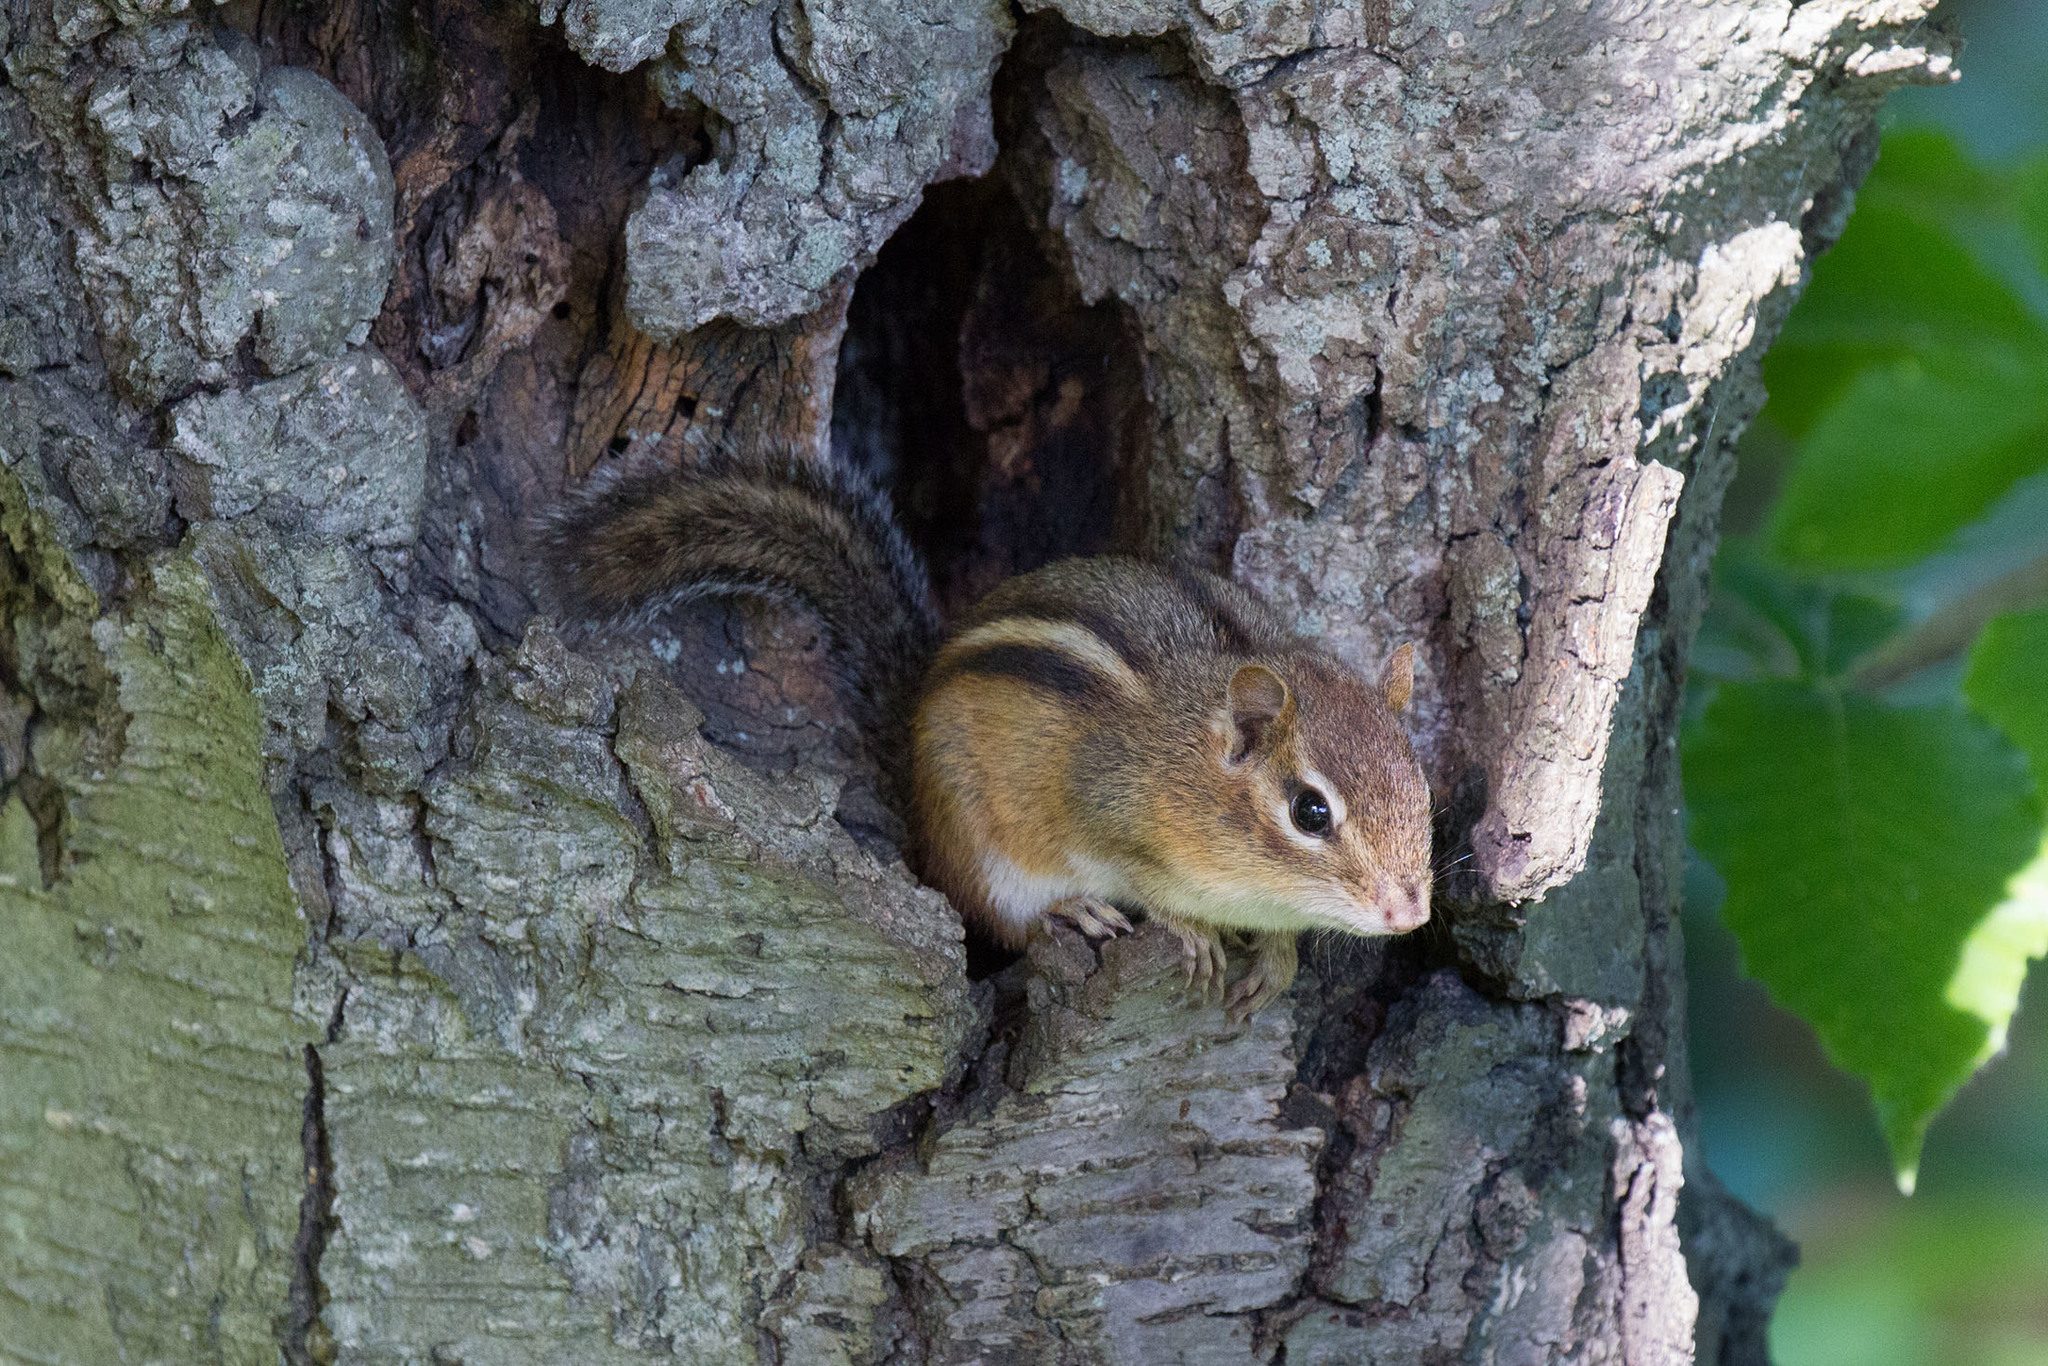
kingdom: Animalia
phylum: Chordata
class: Mammalia
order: Rodentia
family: Sciuridae
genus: Tamias
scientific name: Tamias striatus
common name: Eastern chipmunk
